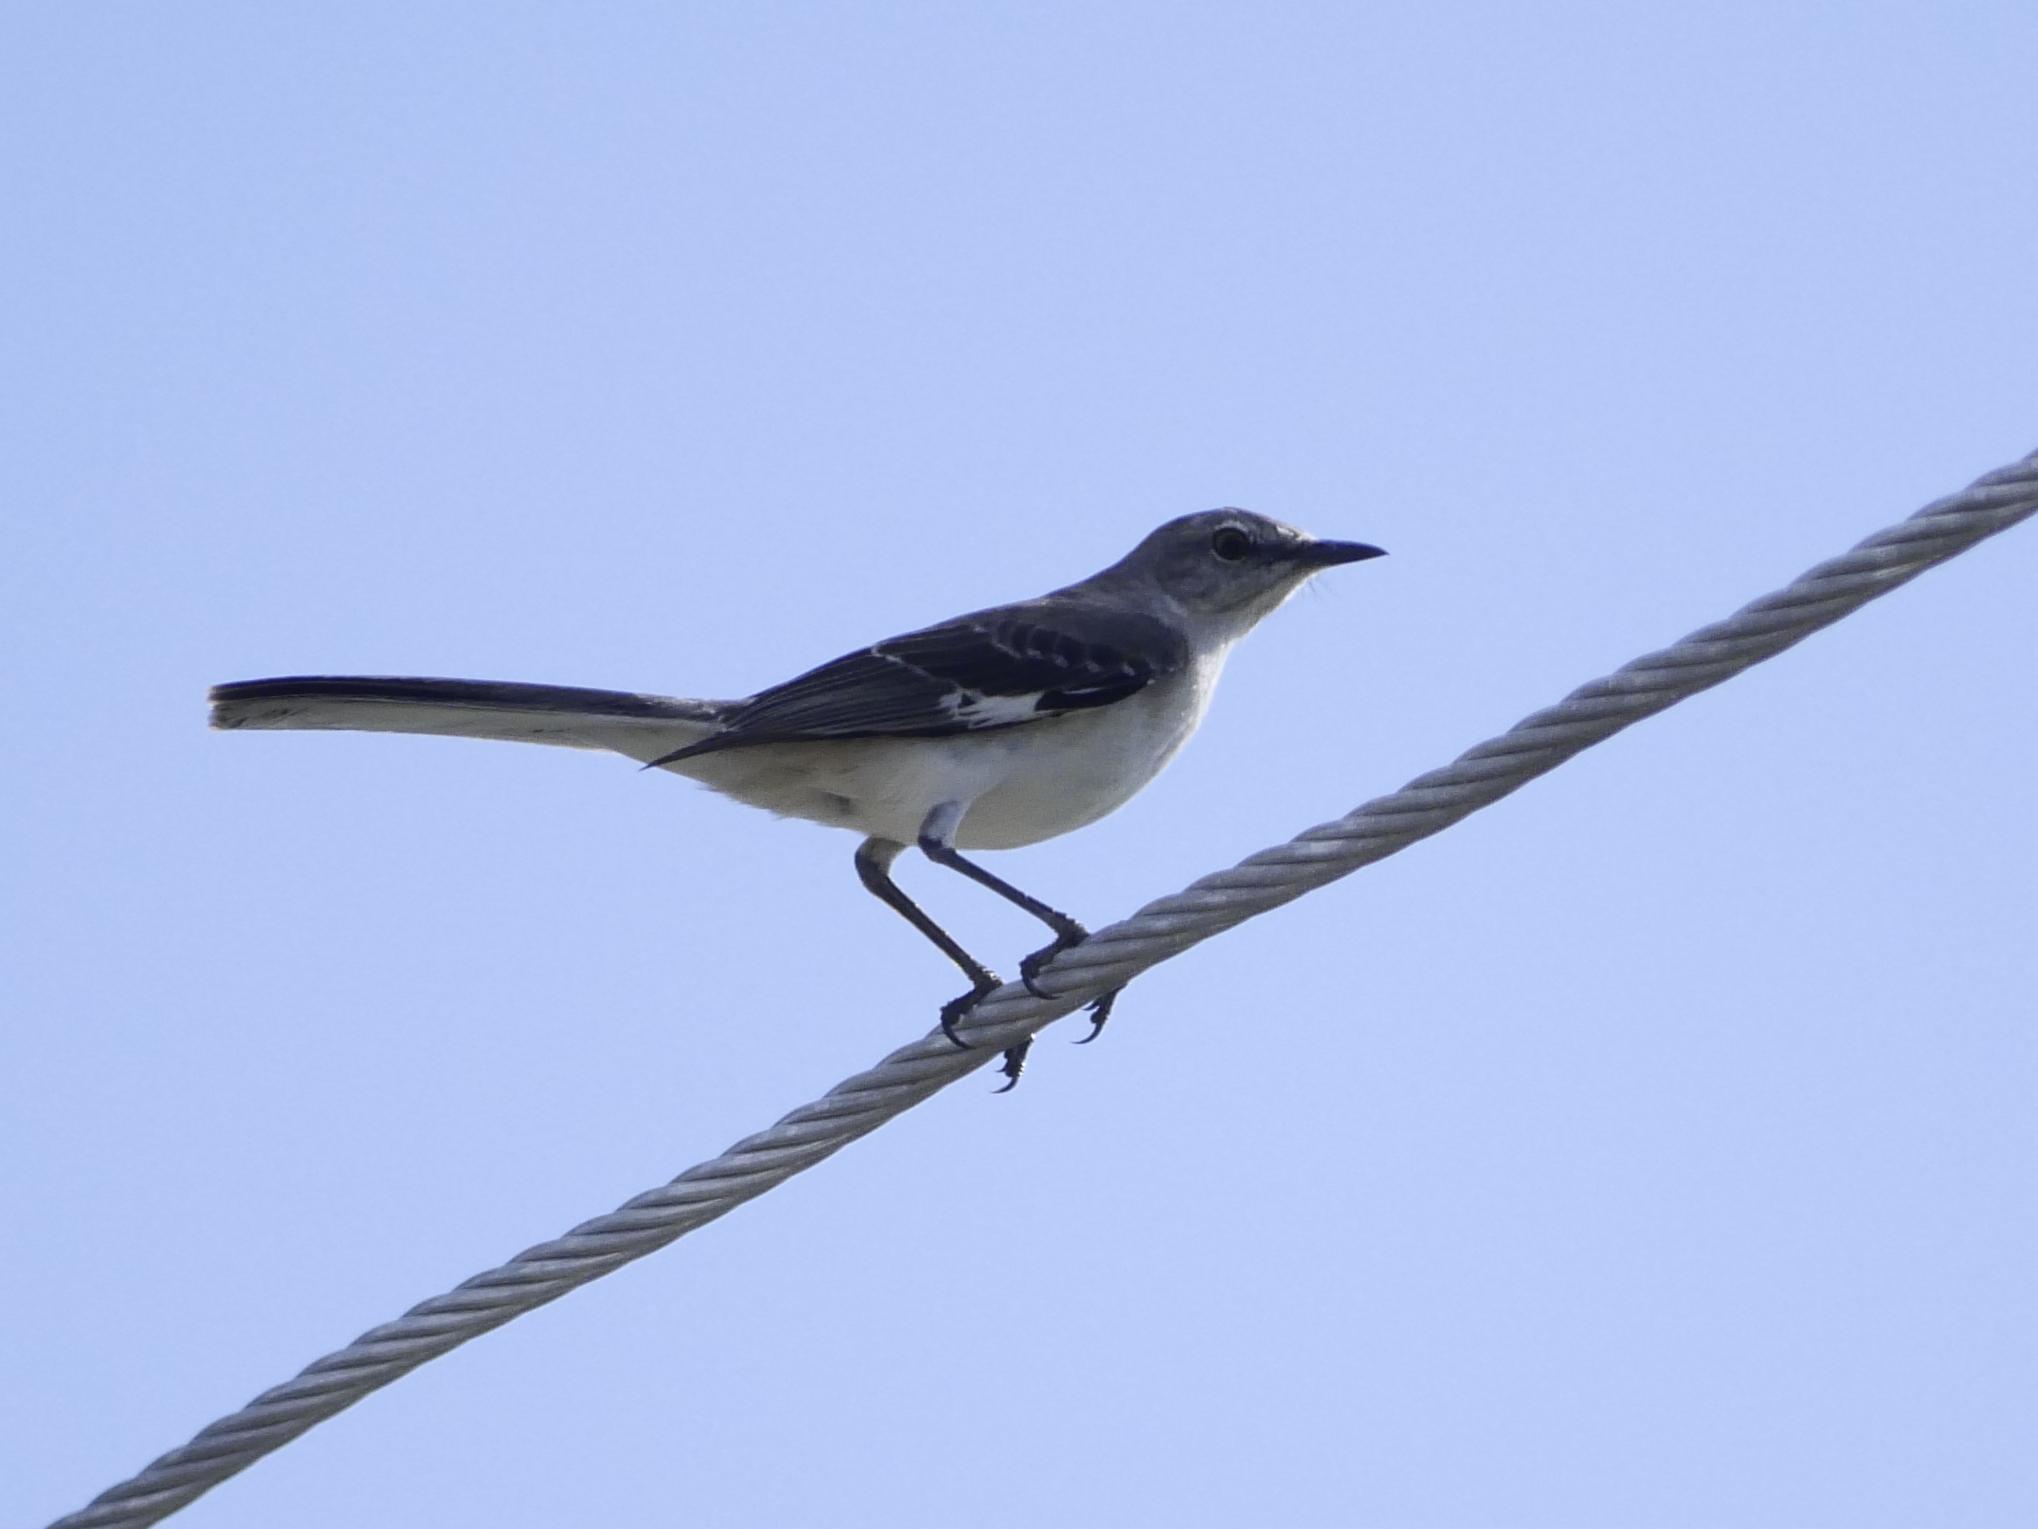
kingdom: Animalia
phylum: Chordata
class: Aves
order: Passeriformes
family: Mimidae
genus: Mimus
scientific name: Mimus polyglottos
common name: Northern mockingbird
